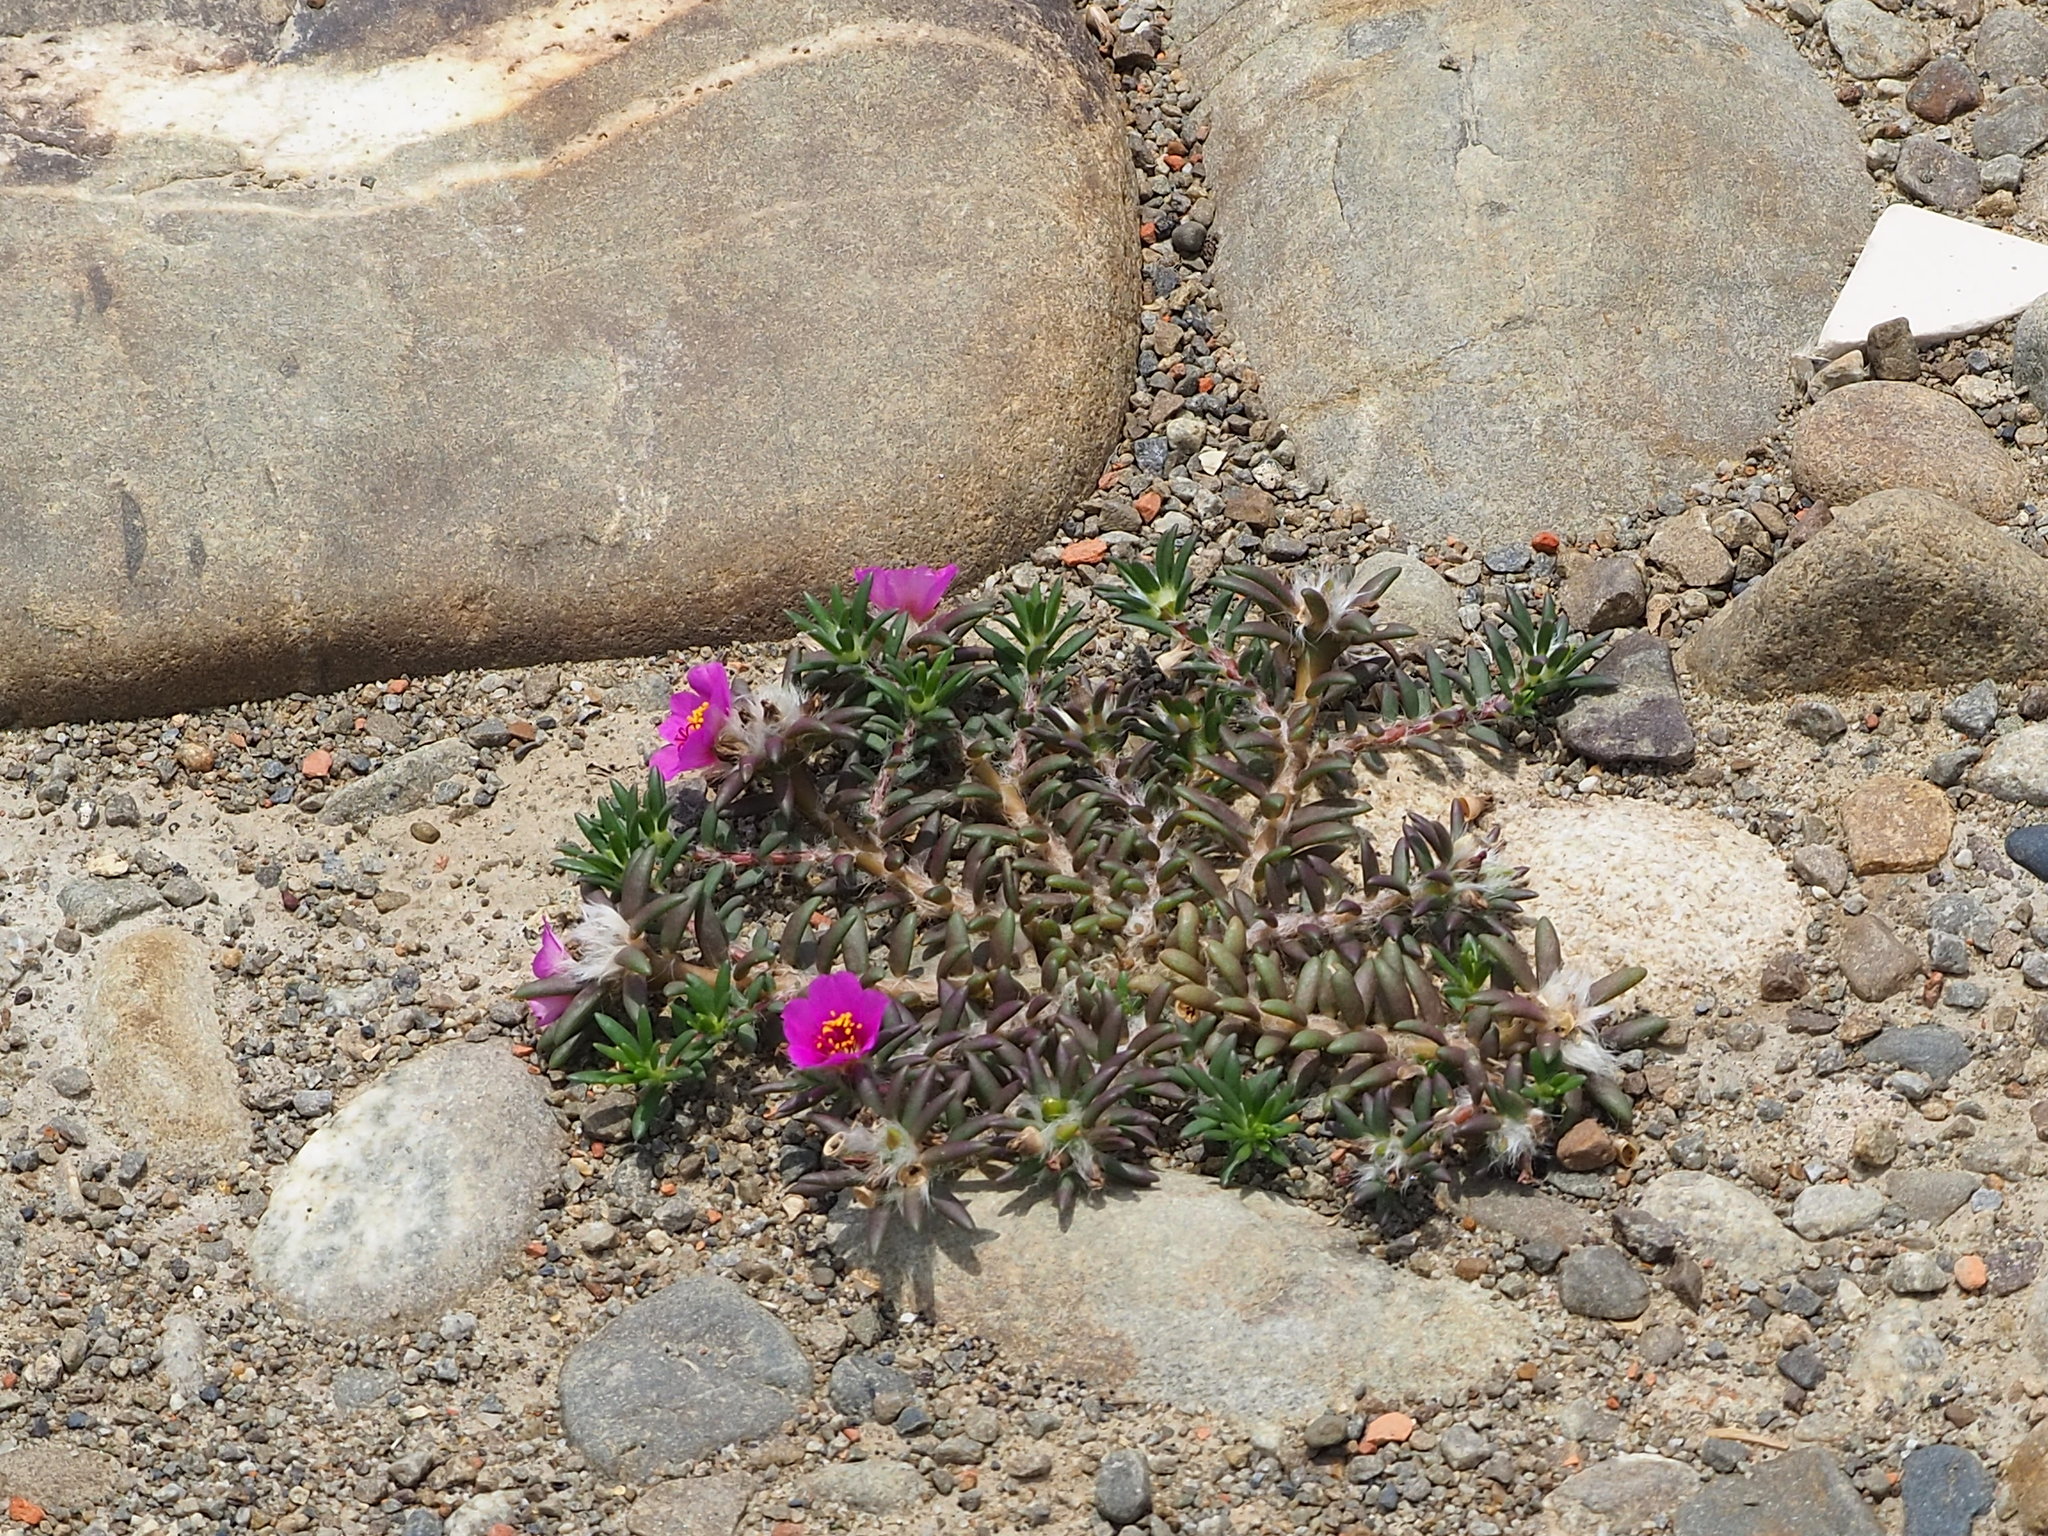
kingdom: Plantae
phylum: Tracheophyta
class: Magnoliopsida
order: Caryophyllales
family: Portulacaceae
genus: Portulaca
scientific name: Portulaca pilosa
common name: Kiss me quick
